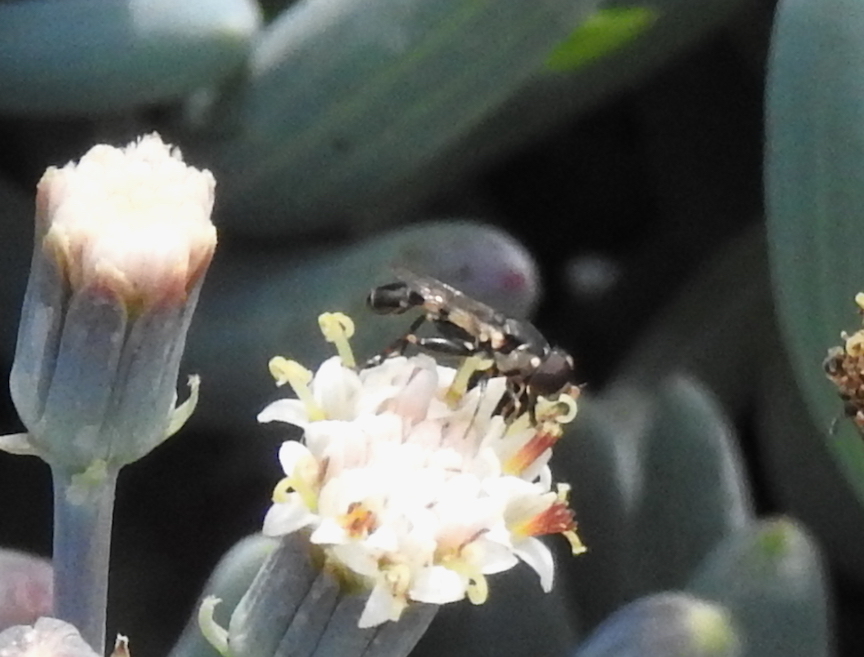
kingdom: Animalia
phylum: Arthropoda
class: Insecta
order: Diptera
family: Syrphidae
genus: Syritta
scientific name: Syritta pipiens
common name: Hover fly
